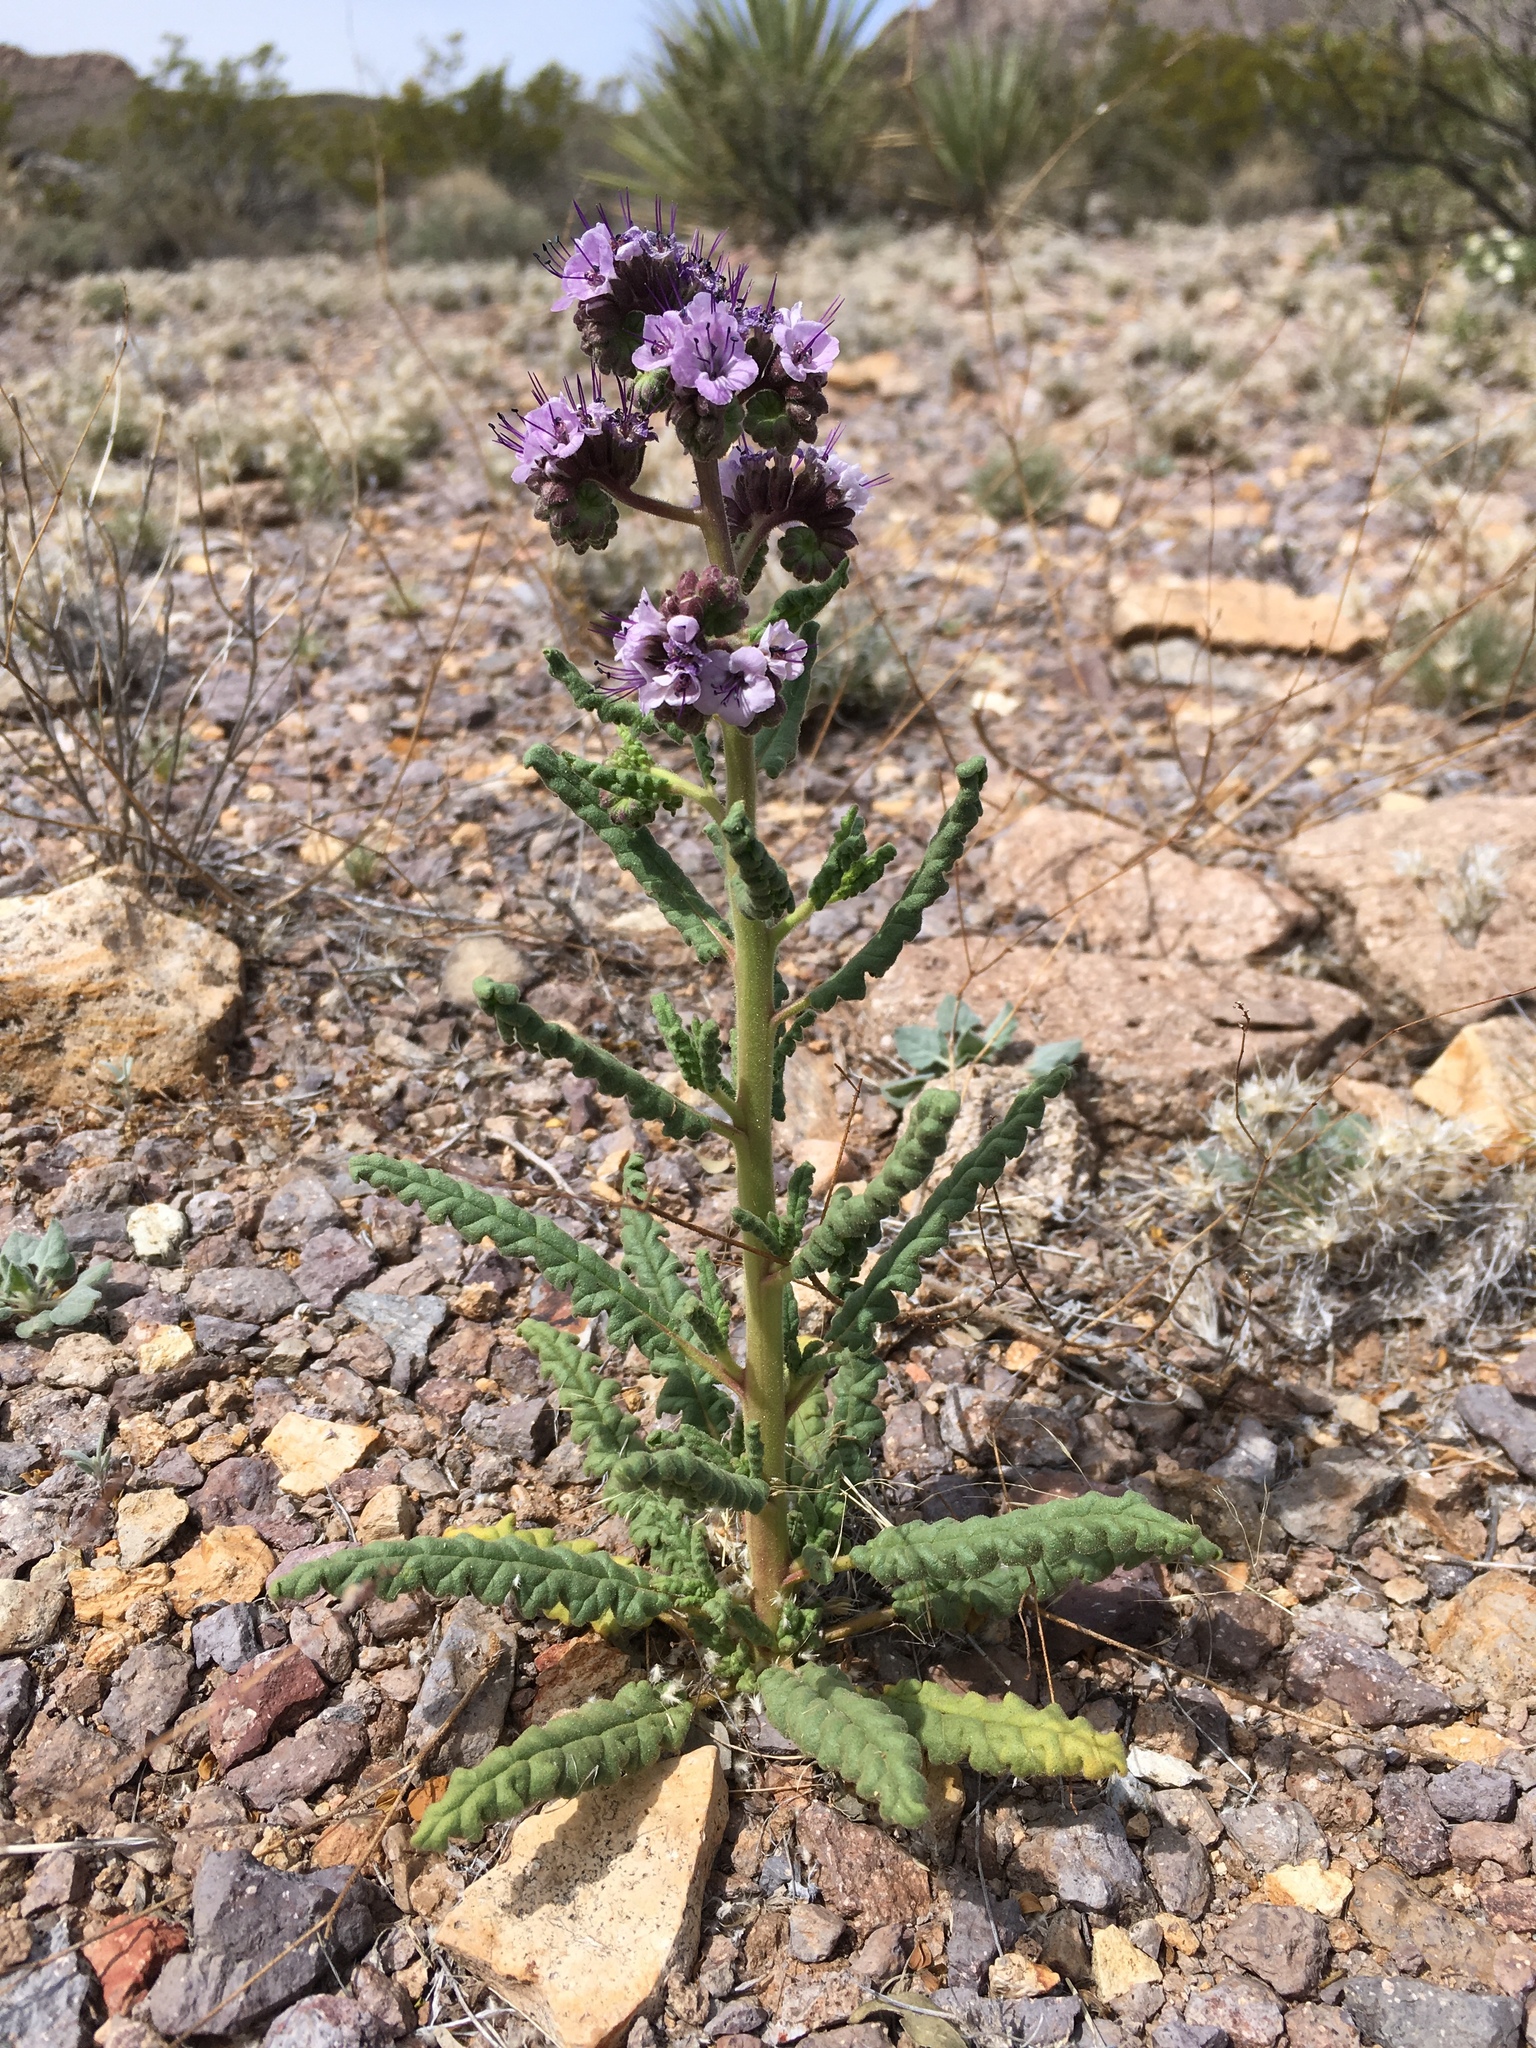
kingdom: Plantae
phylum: Tracheophyta
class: Magnoliopsida
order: Boraginales
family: Hydrophyllaceae
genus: Phacelia
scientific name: Phacelia integrifolia
